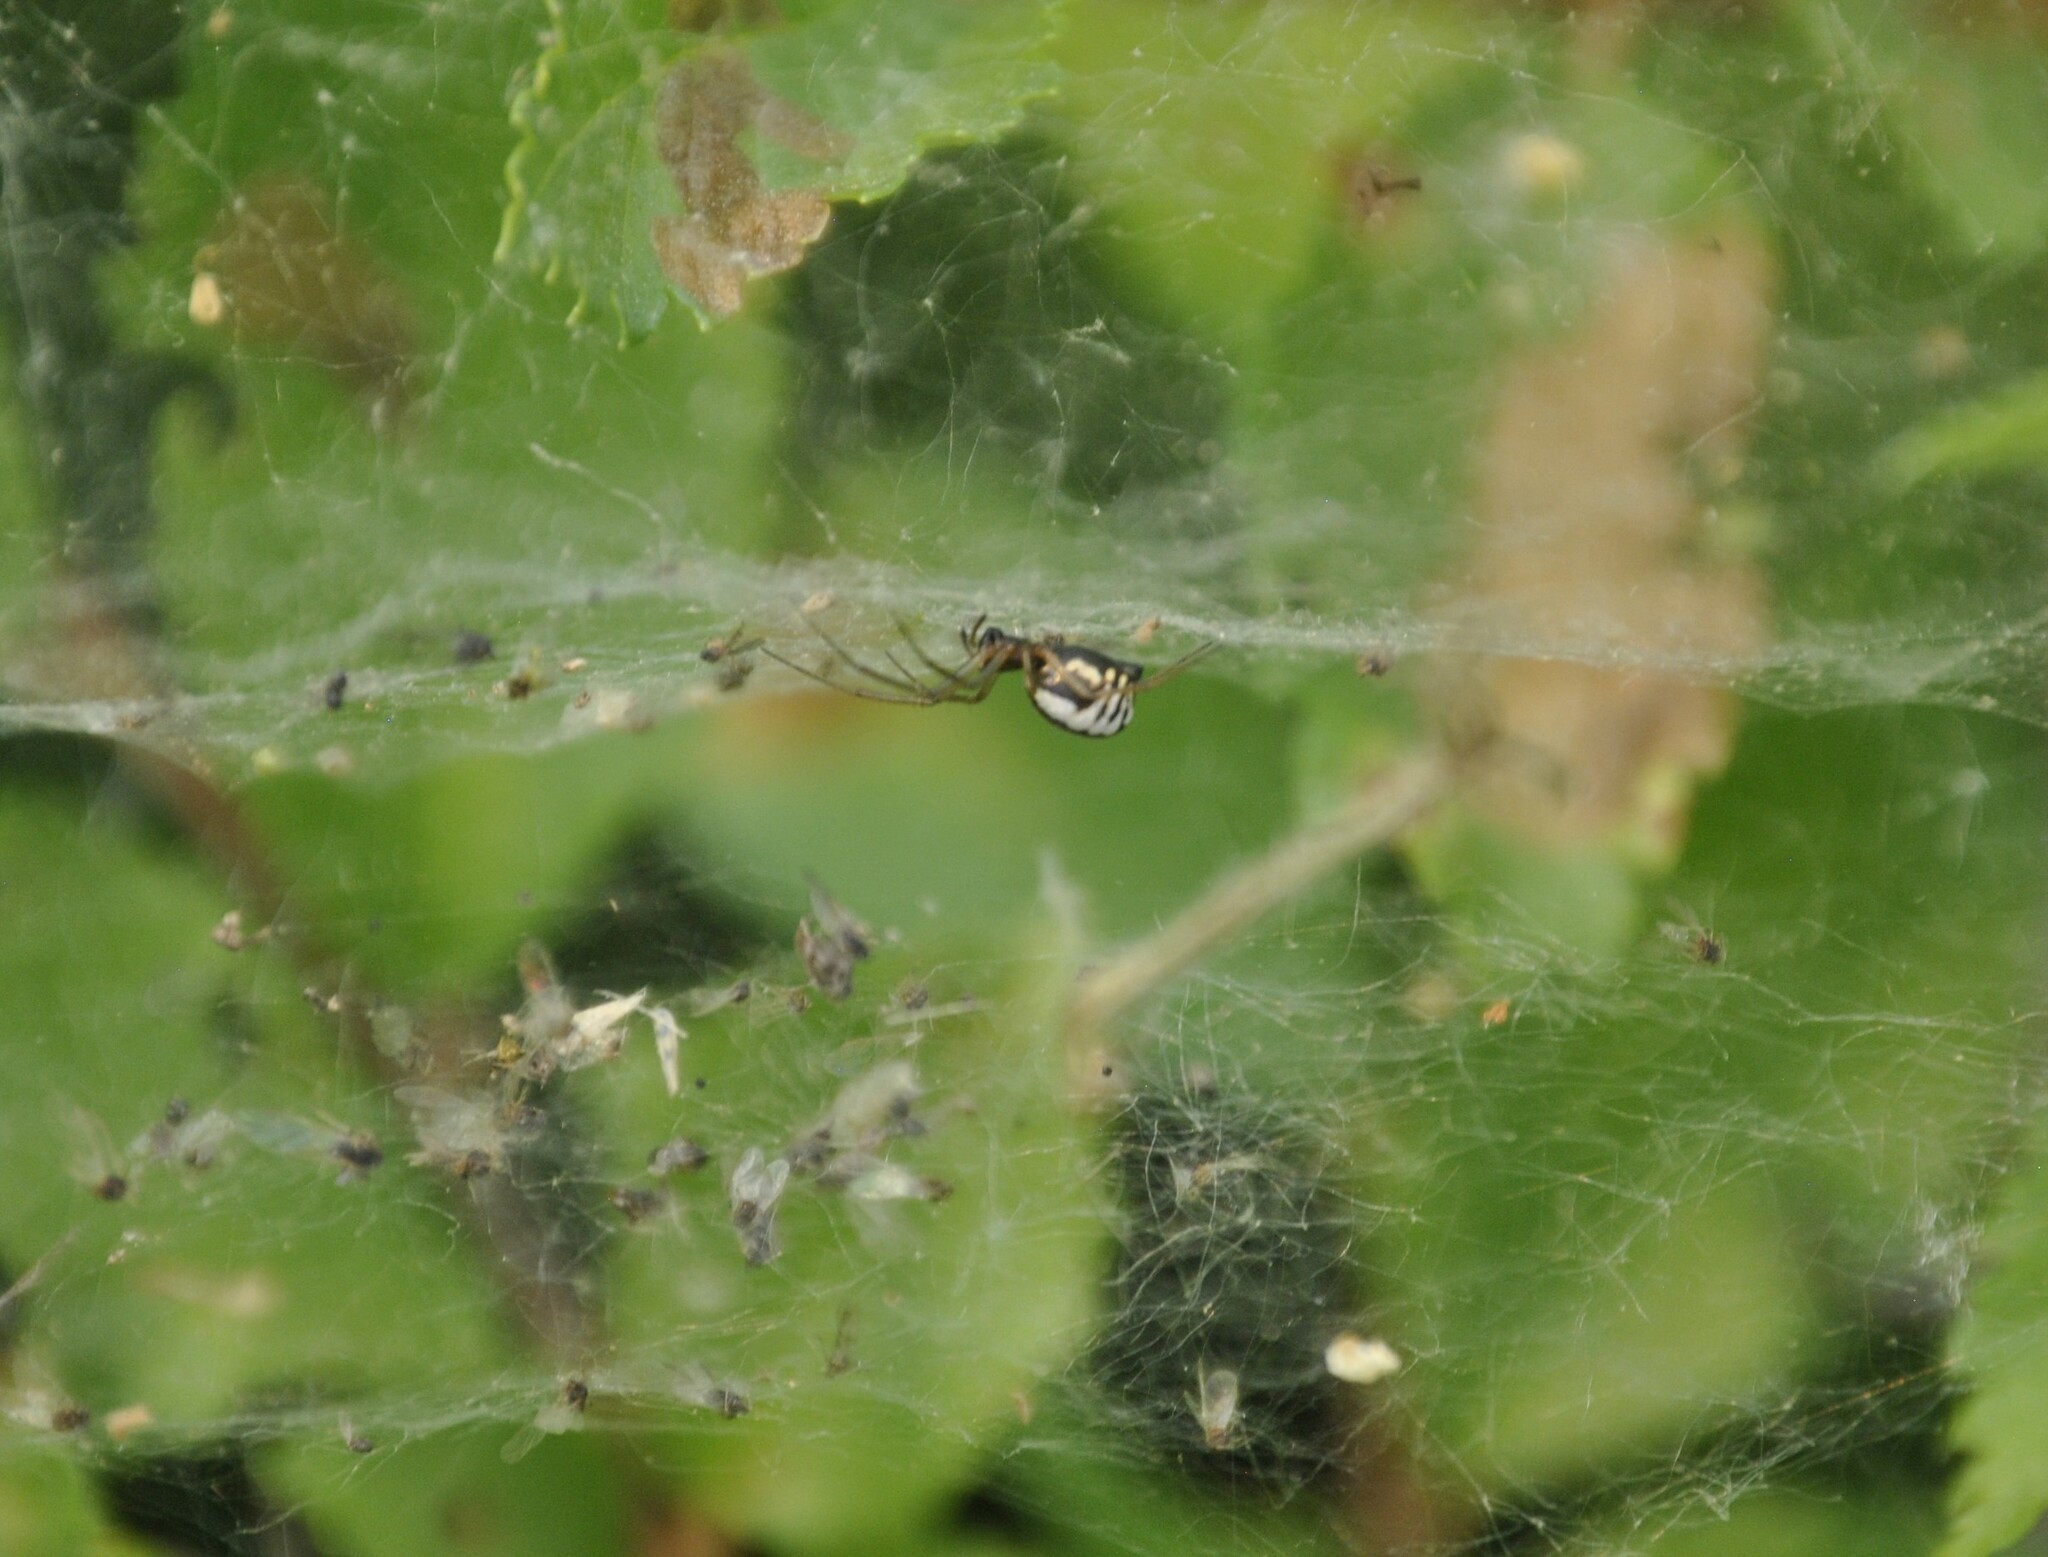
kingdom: Animalia
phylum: Arthropoda
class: Arachnida
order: Araneae
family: Linyphiidae
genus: Frontinella
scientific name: Frontinella pyramitela
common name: Bowl-and-doily spider
